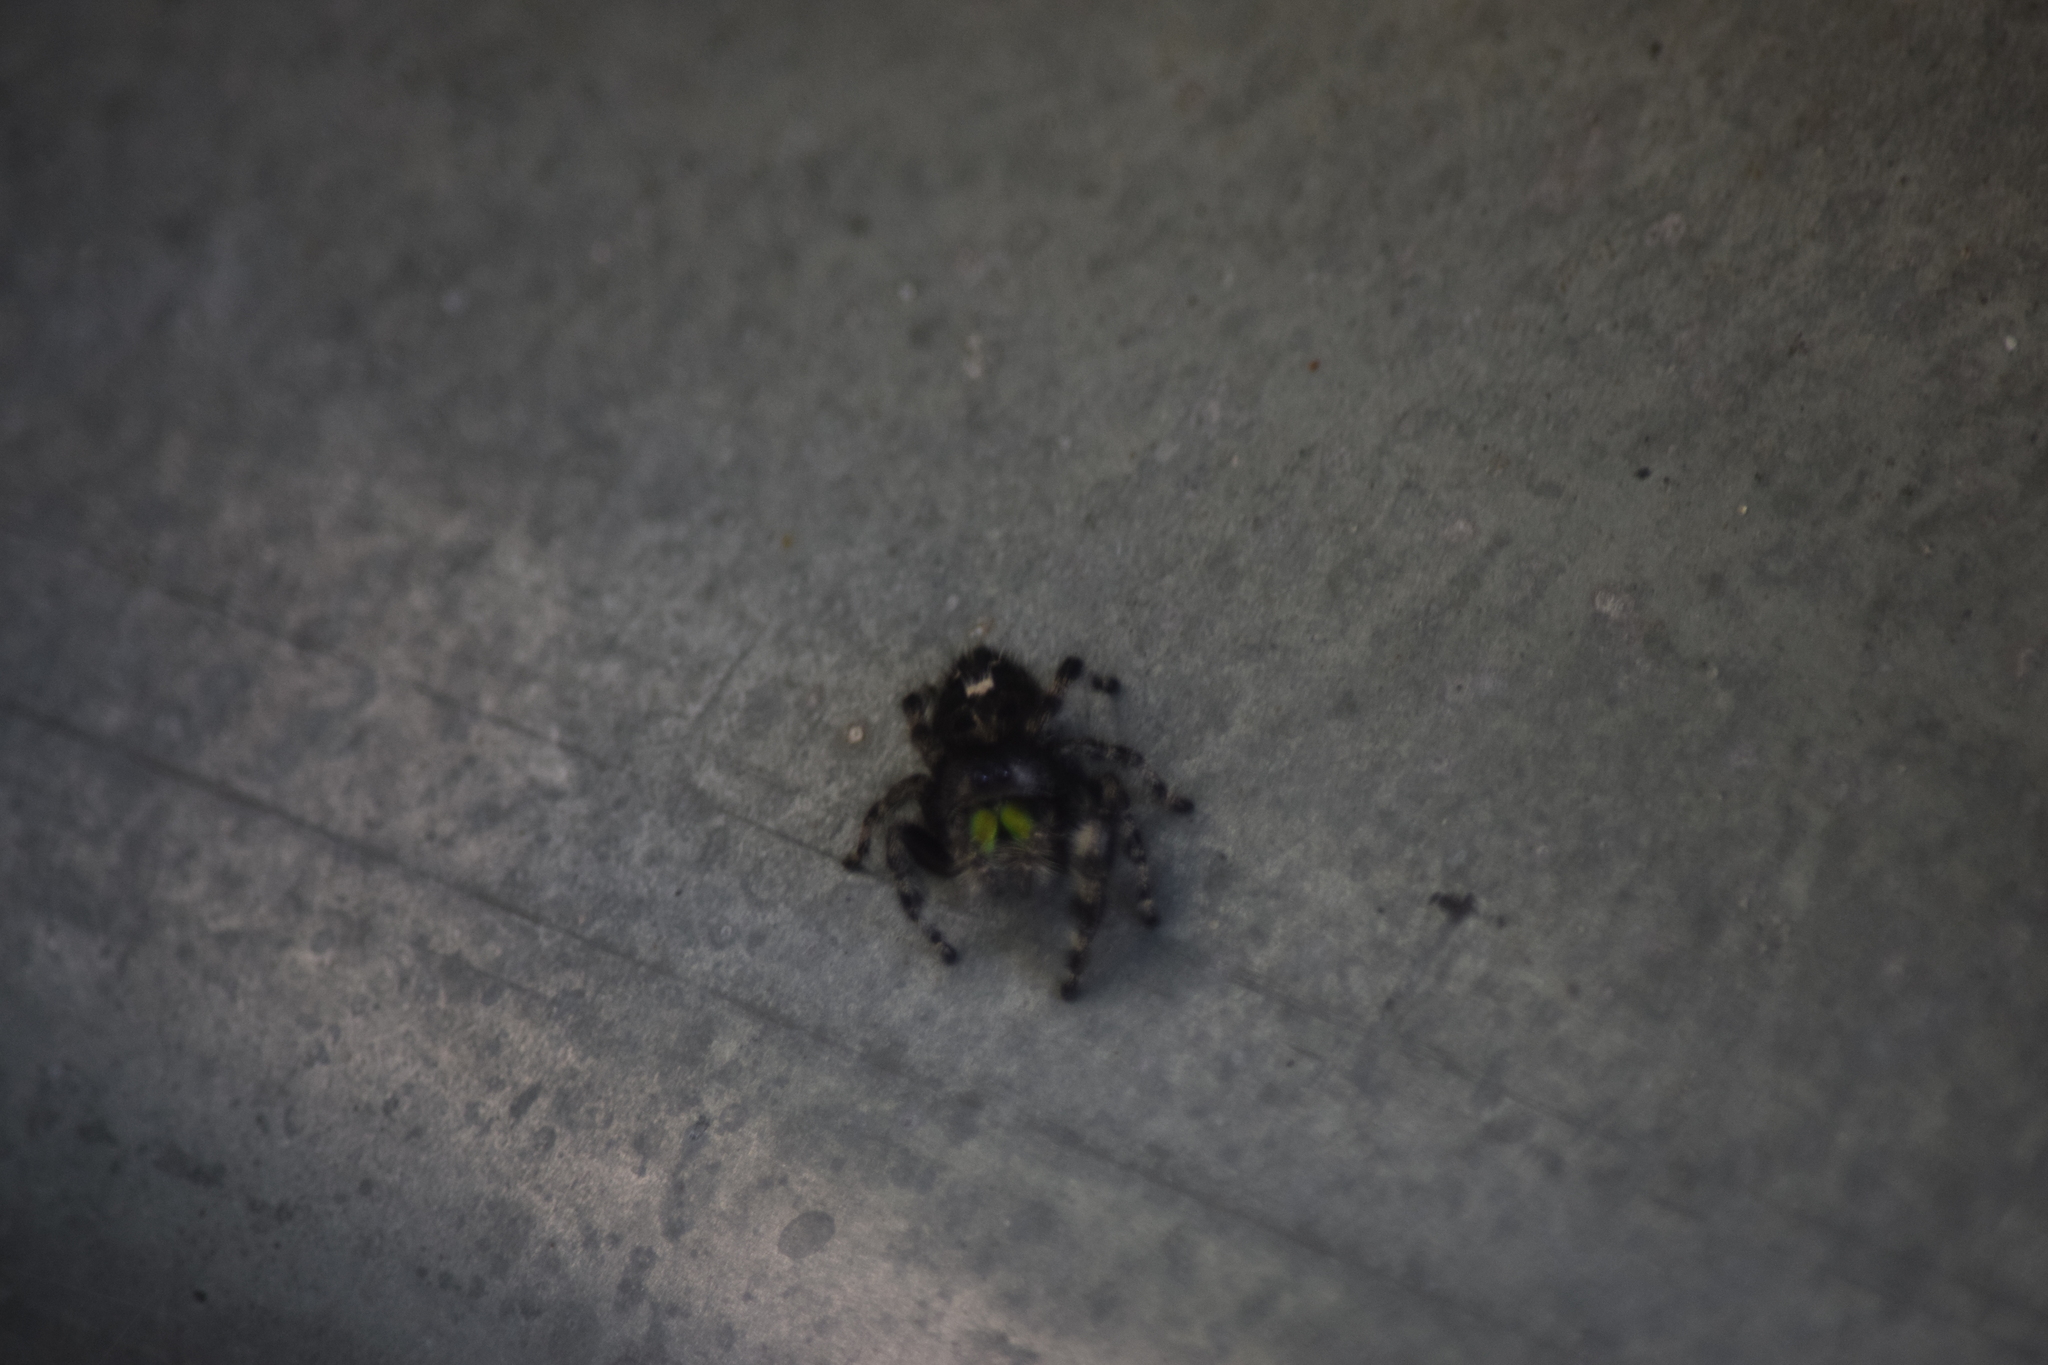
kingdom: Animalia
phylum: Arthropoda
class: Arachnida
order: Araneae
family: Salticidae
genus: Phidippus
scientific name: Phidippus audax
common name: Bold jumper
